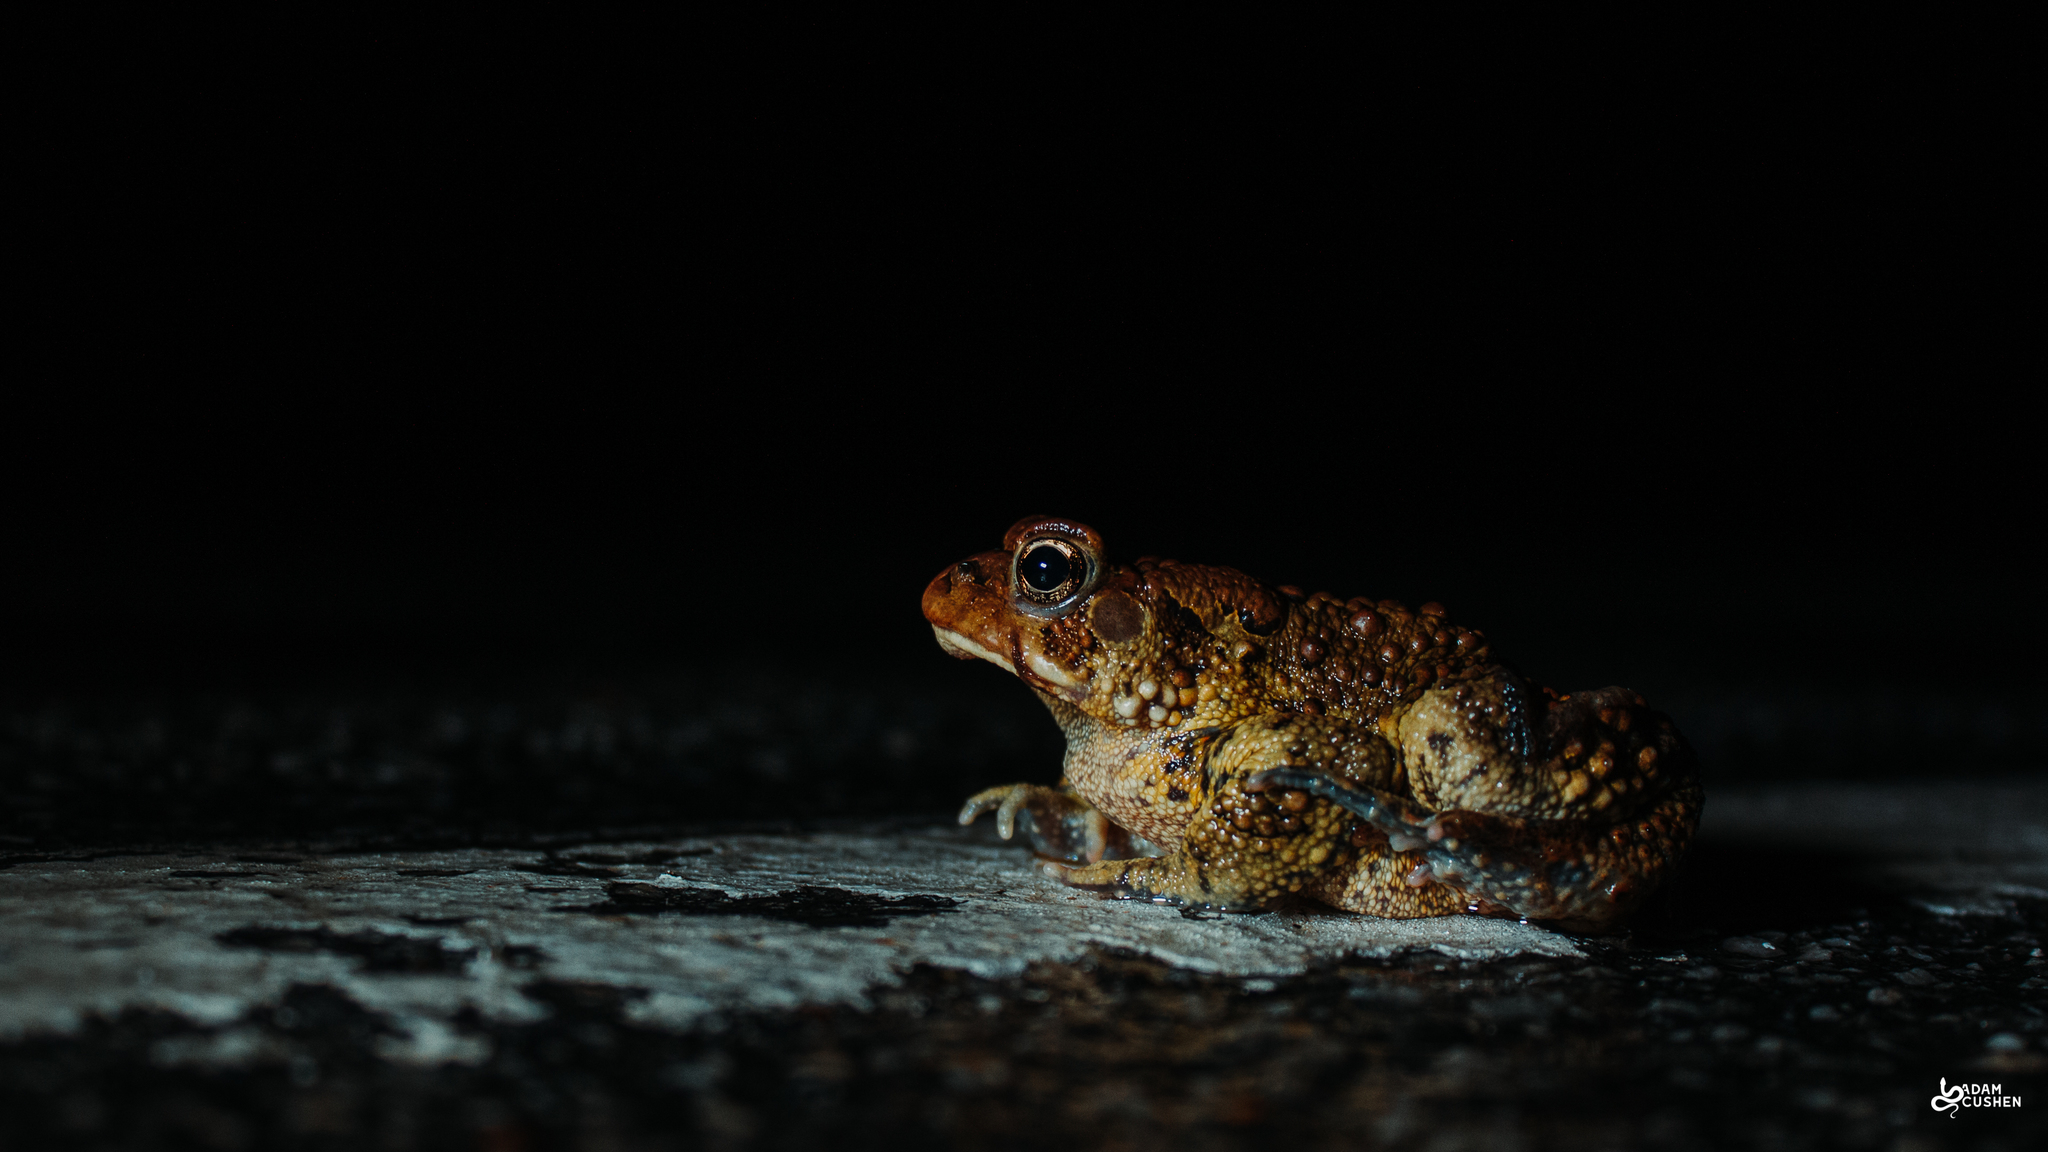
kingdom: Animalia
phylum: Chordata
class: Amphibia
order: Anura
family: Bufonidae
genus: Anaxyrus
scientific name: Anaxyrus americanus
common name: American toad
